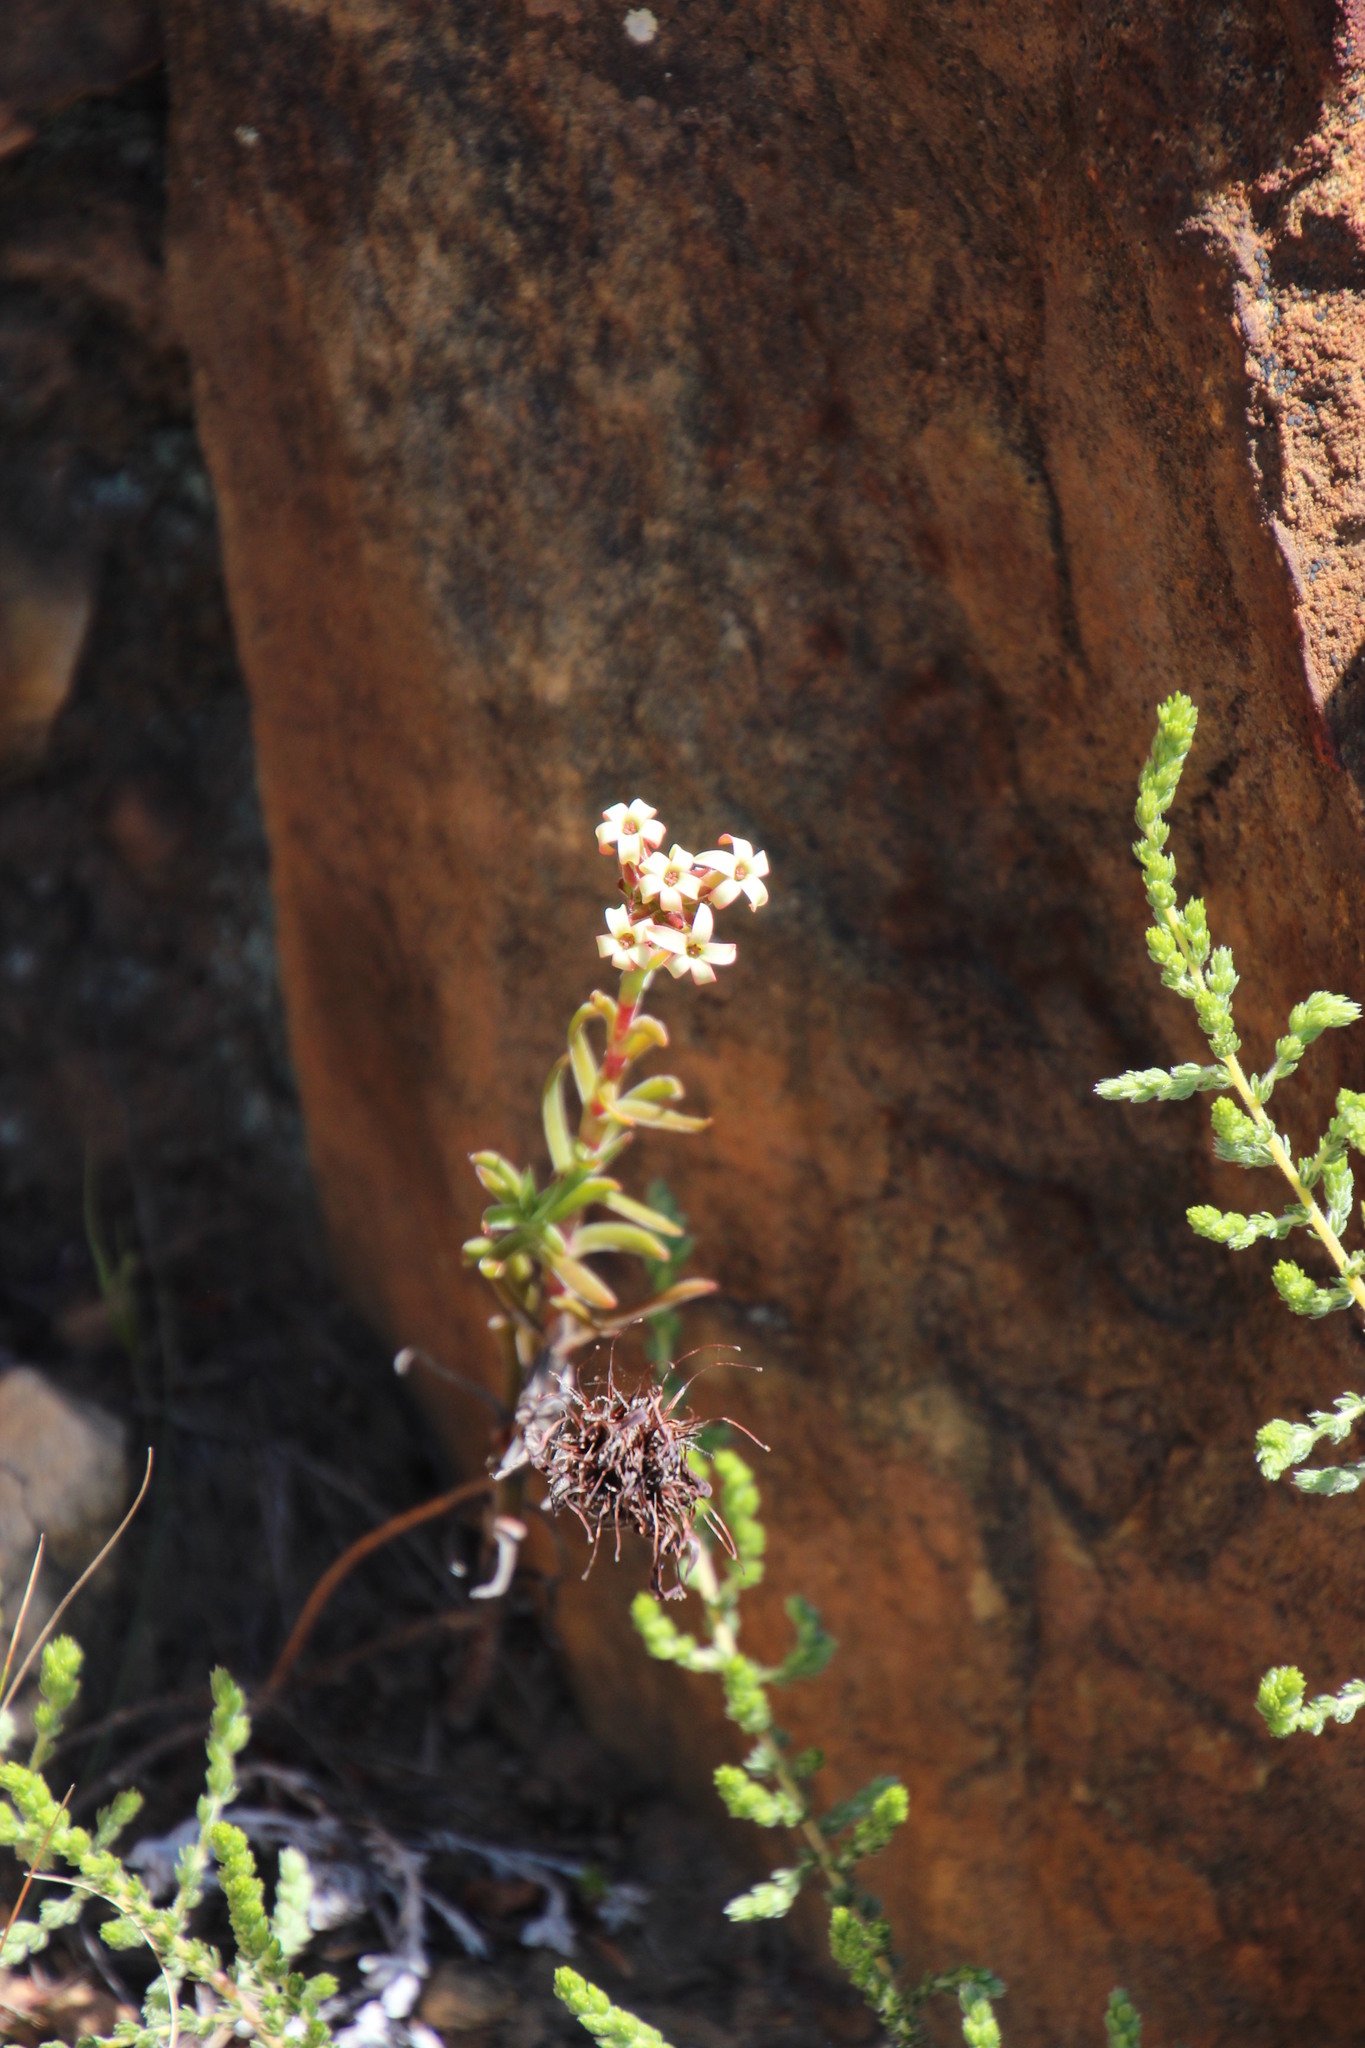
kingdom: Plantae
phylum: Tracheophyta
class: Magnoliopsida
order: Saxifragales
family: Crassulaceae
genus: Crassula
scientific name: Crassula fascicularis
